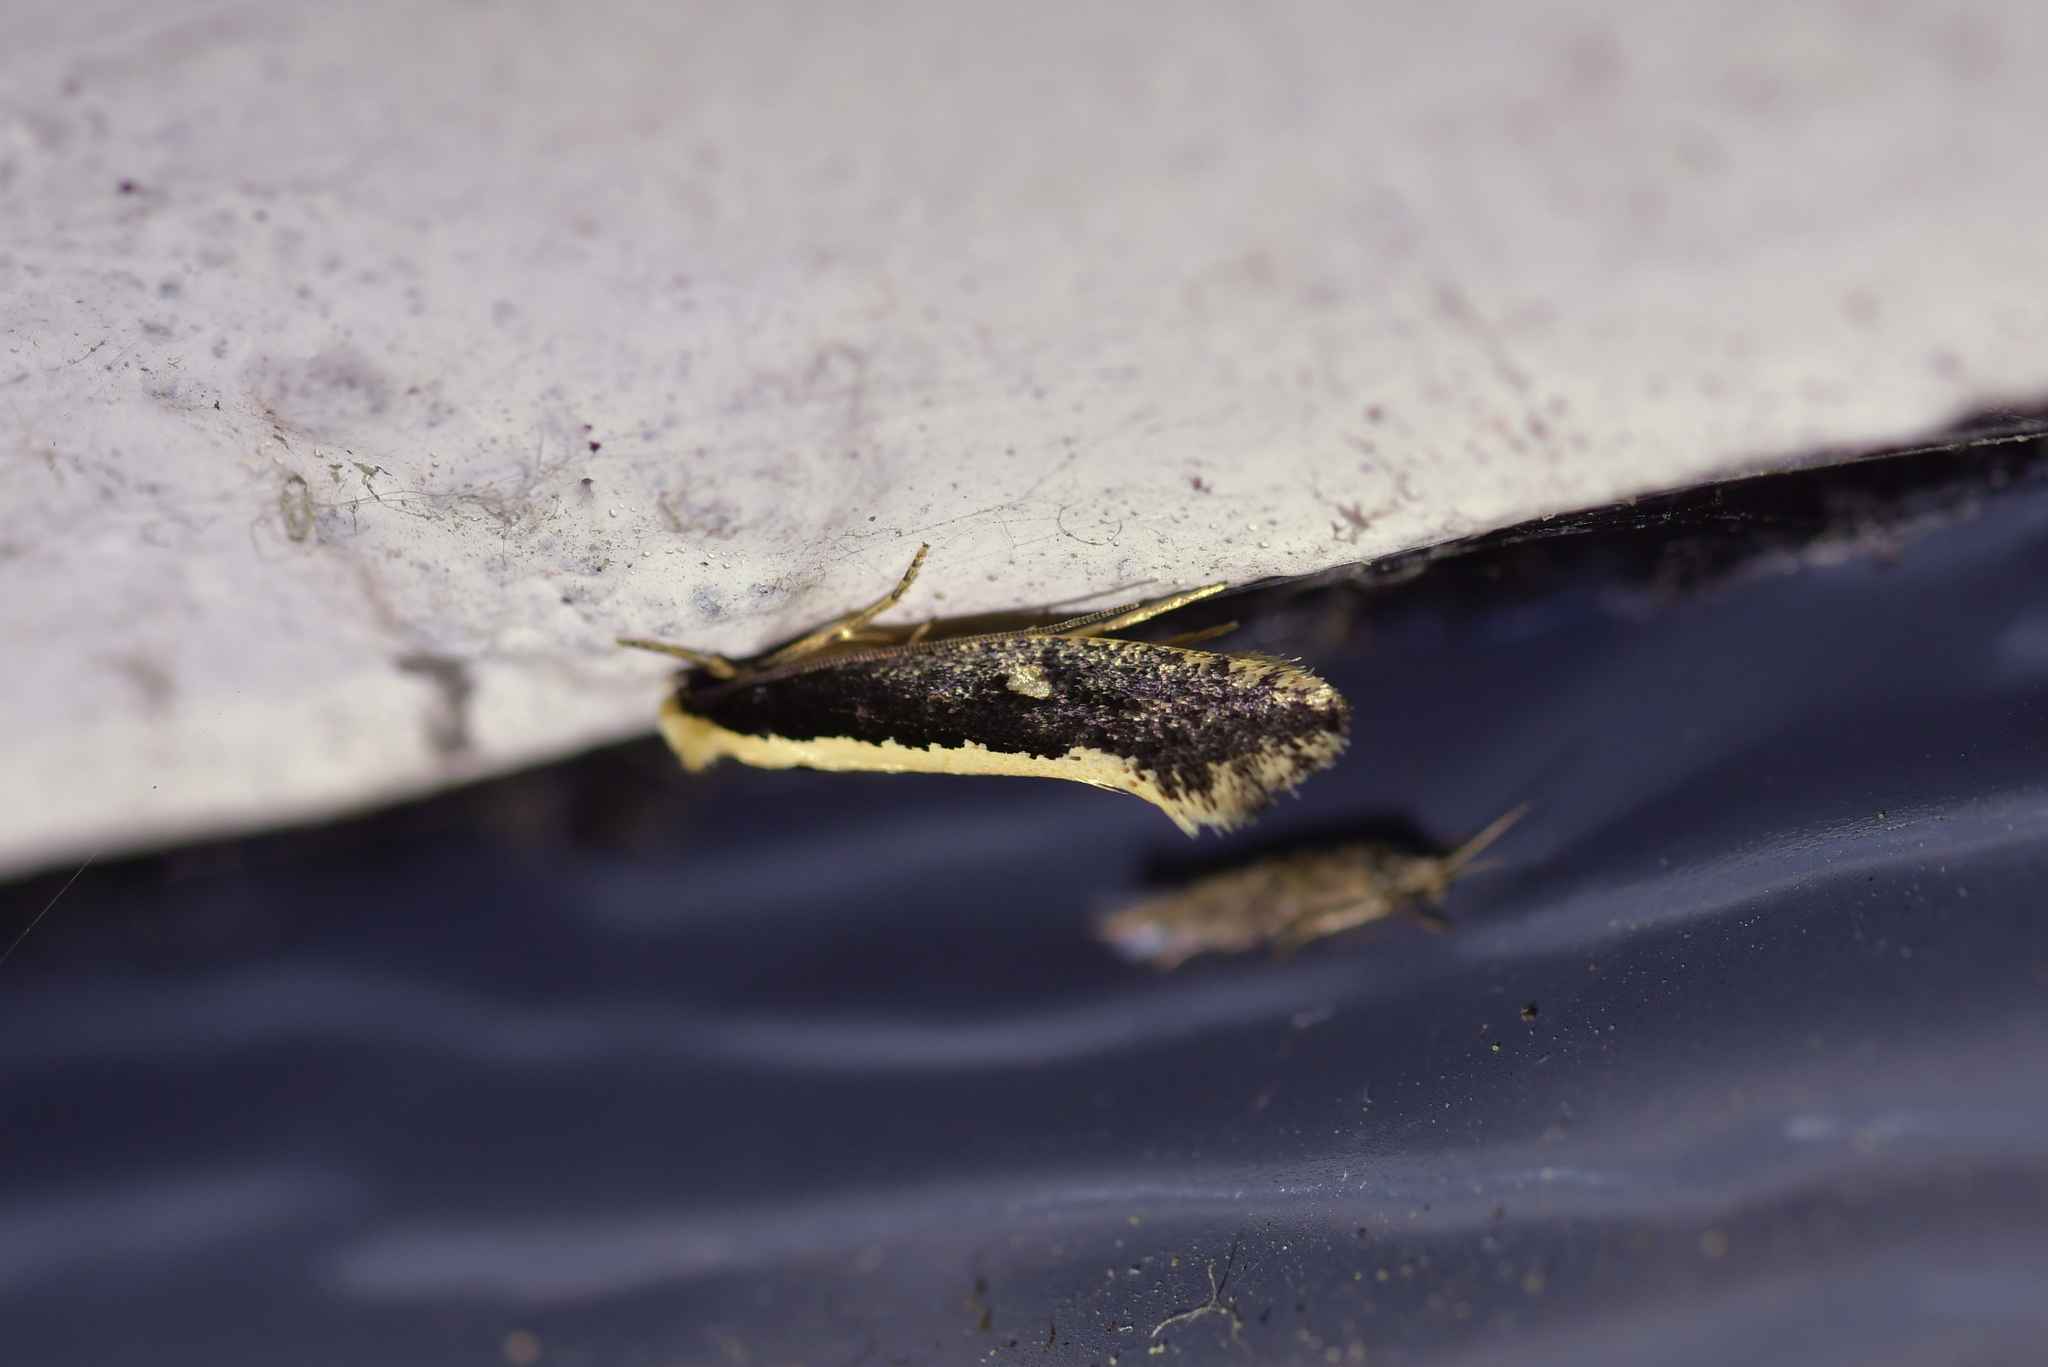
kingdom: Animalia
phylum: Arthropoda
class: Insecta
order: Lepidoptera
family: Tineidae
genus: Monopis
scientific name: Monopis ethelella
